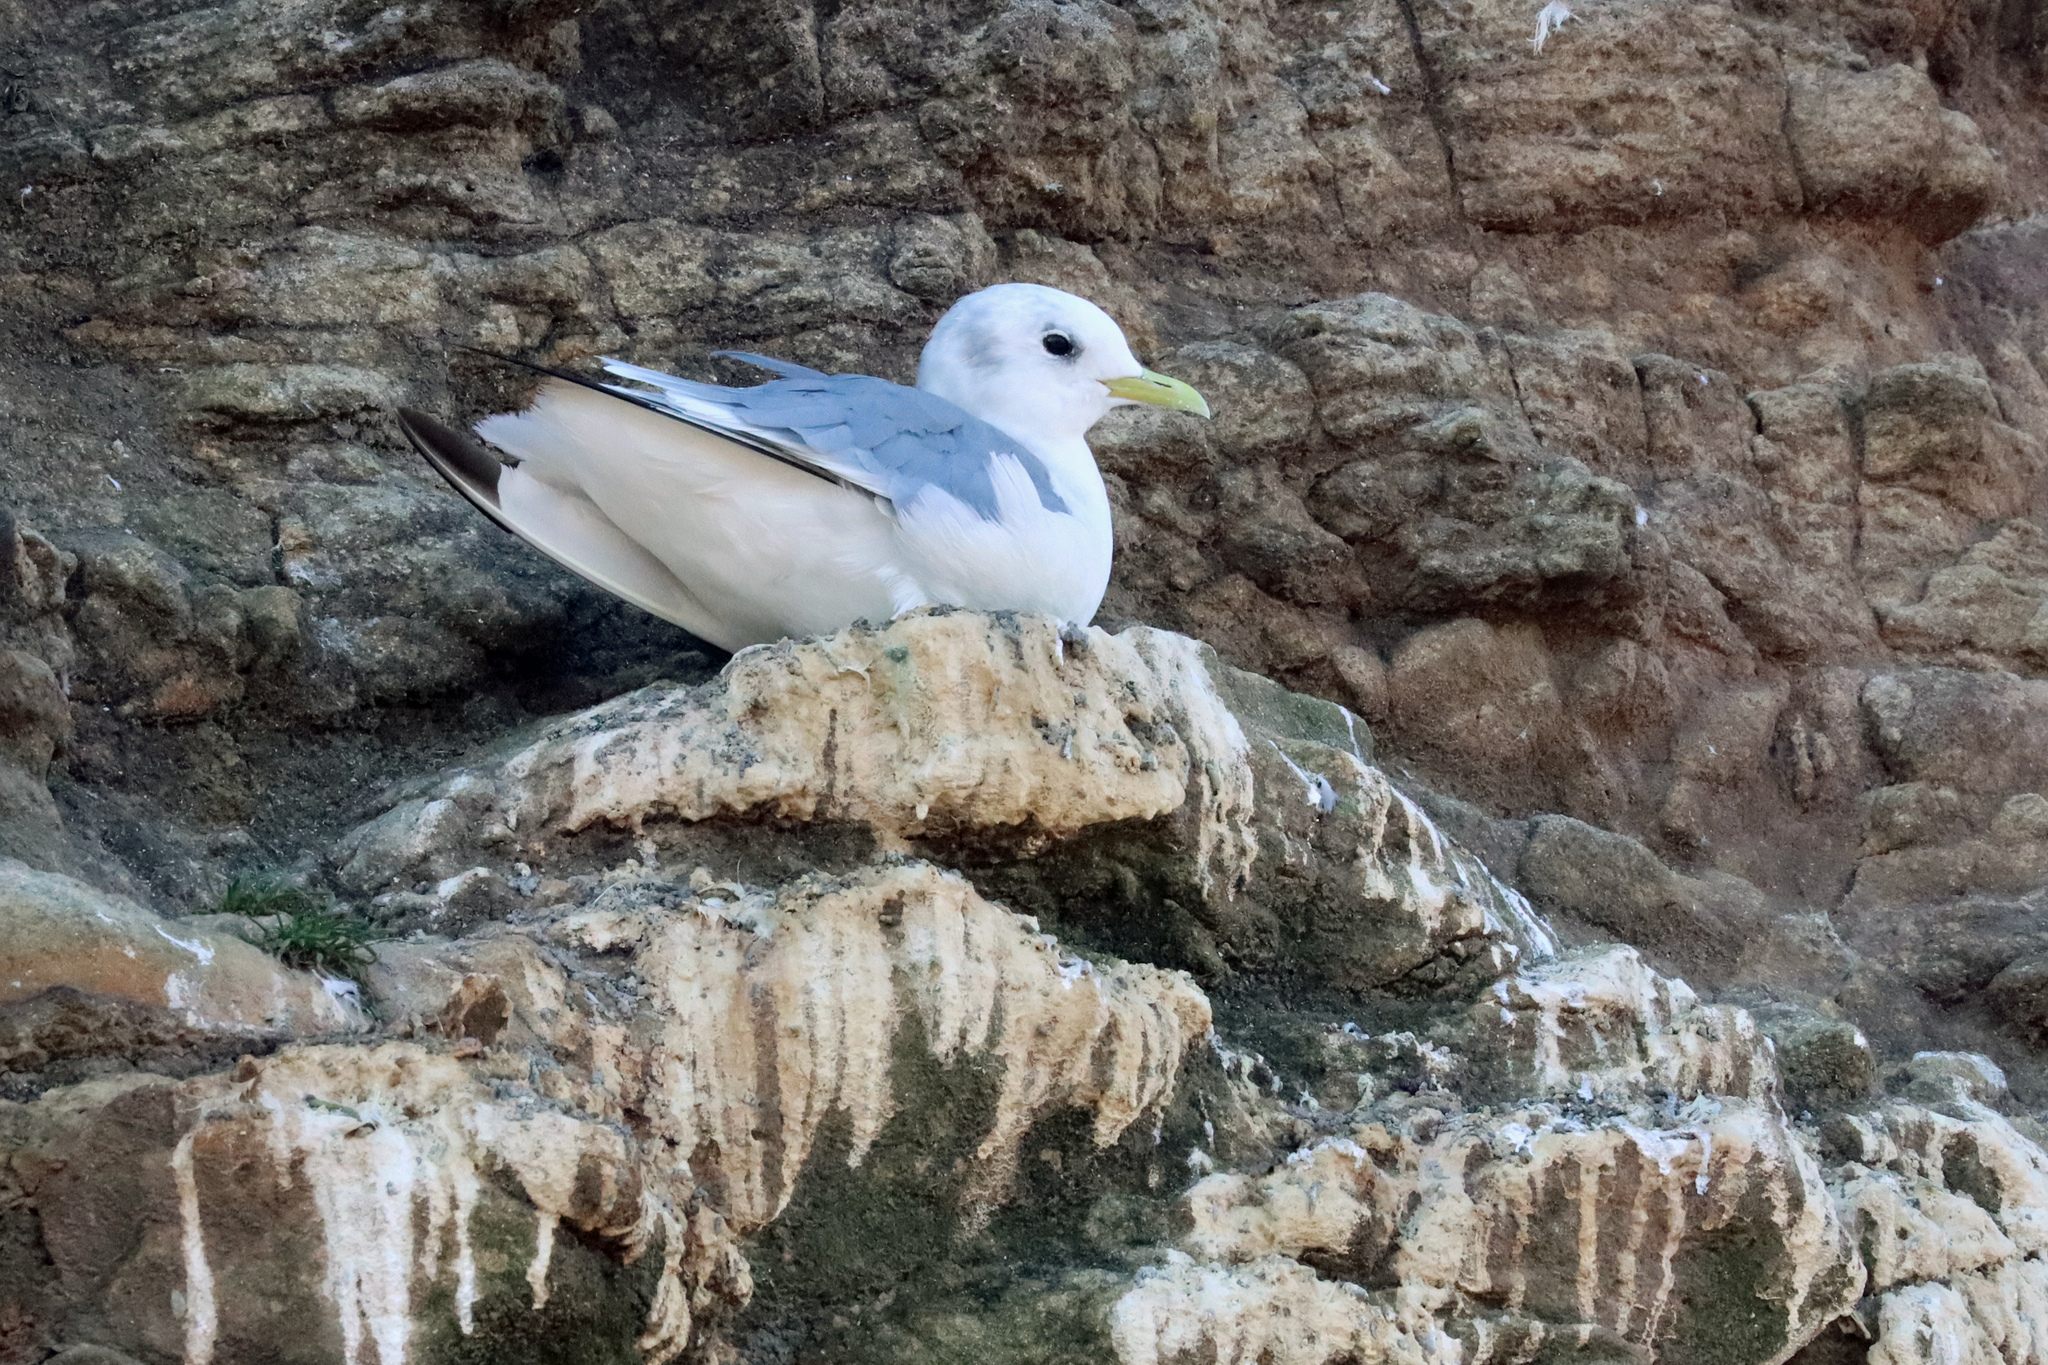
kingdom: Animalia
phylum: Chordata
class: Aves
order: Charadriiformes
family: Laridae
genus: Rissa
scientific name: Rissa tridactyla
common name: Black-legged kittiwake
